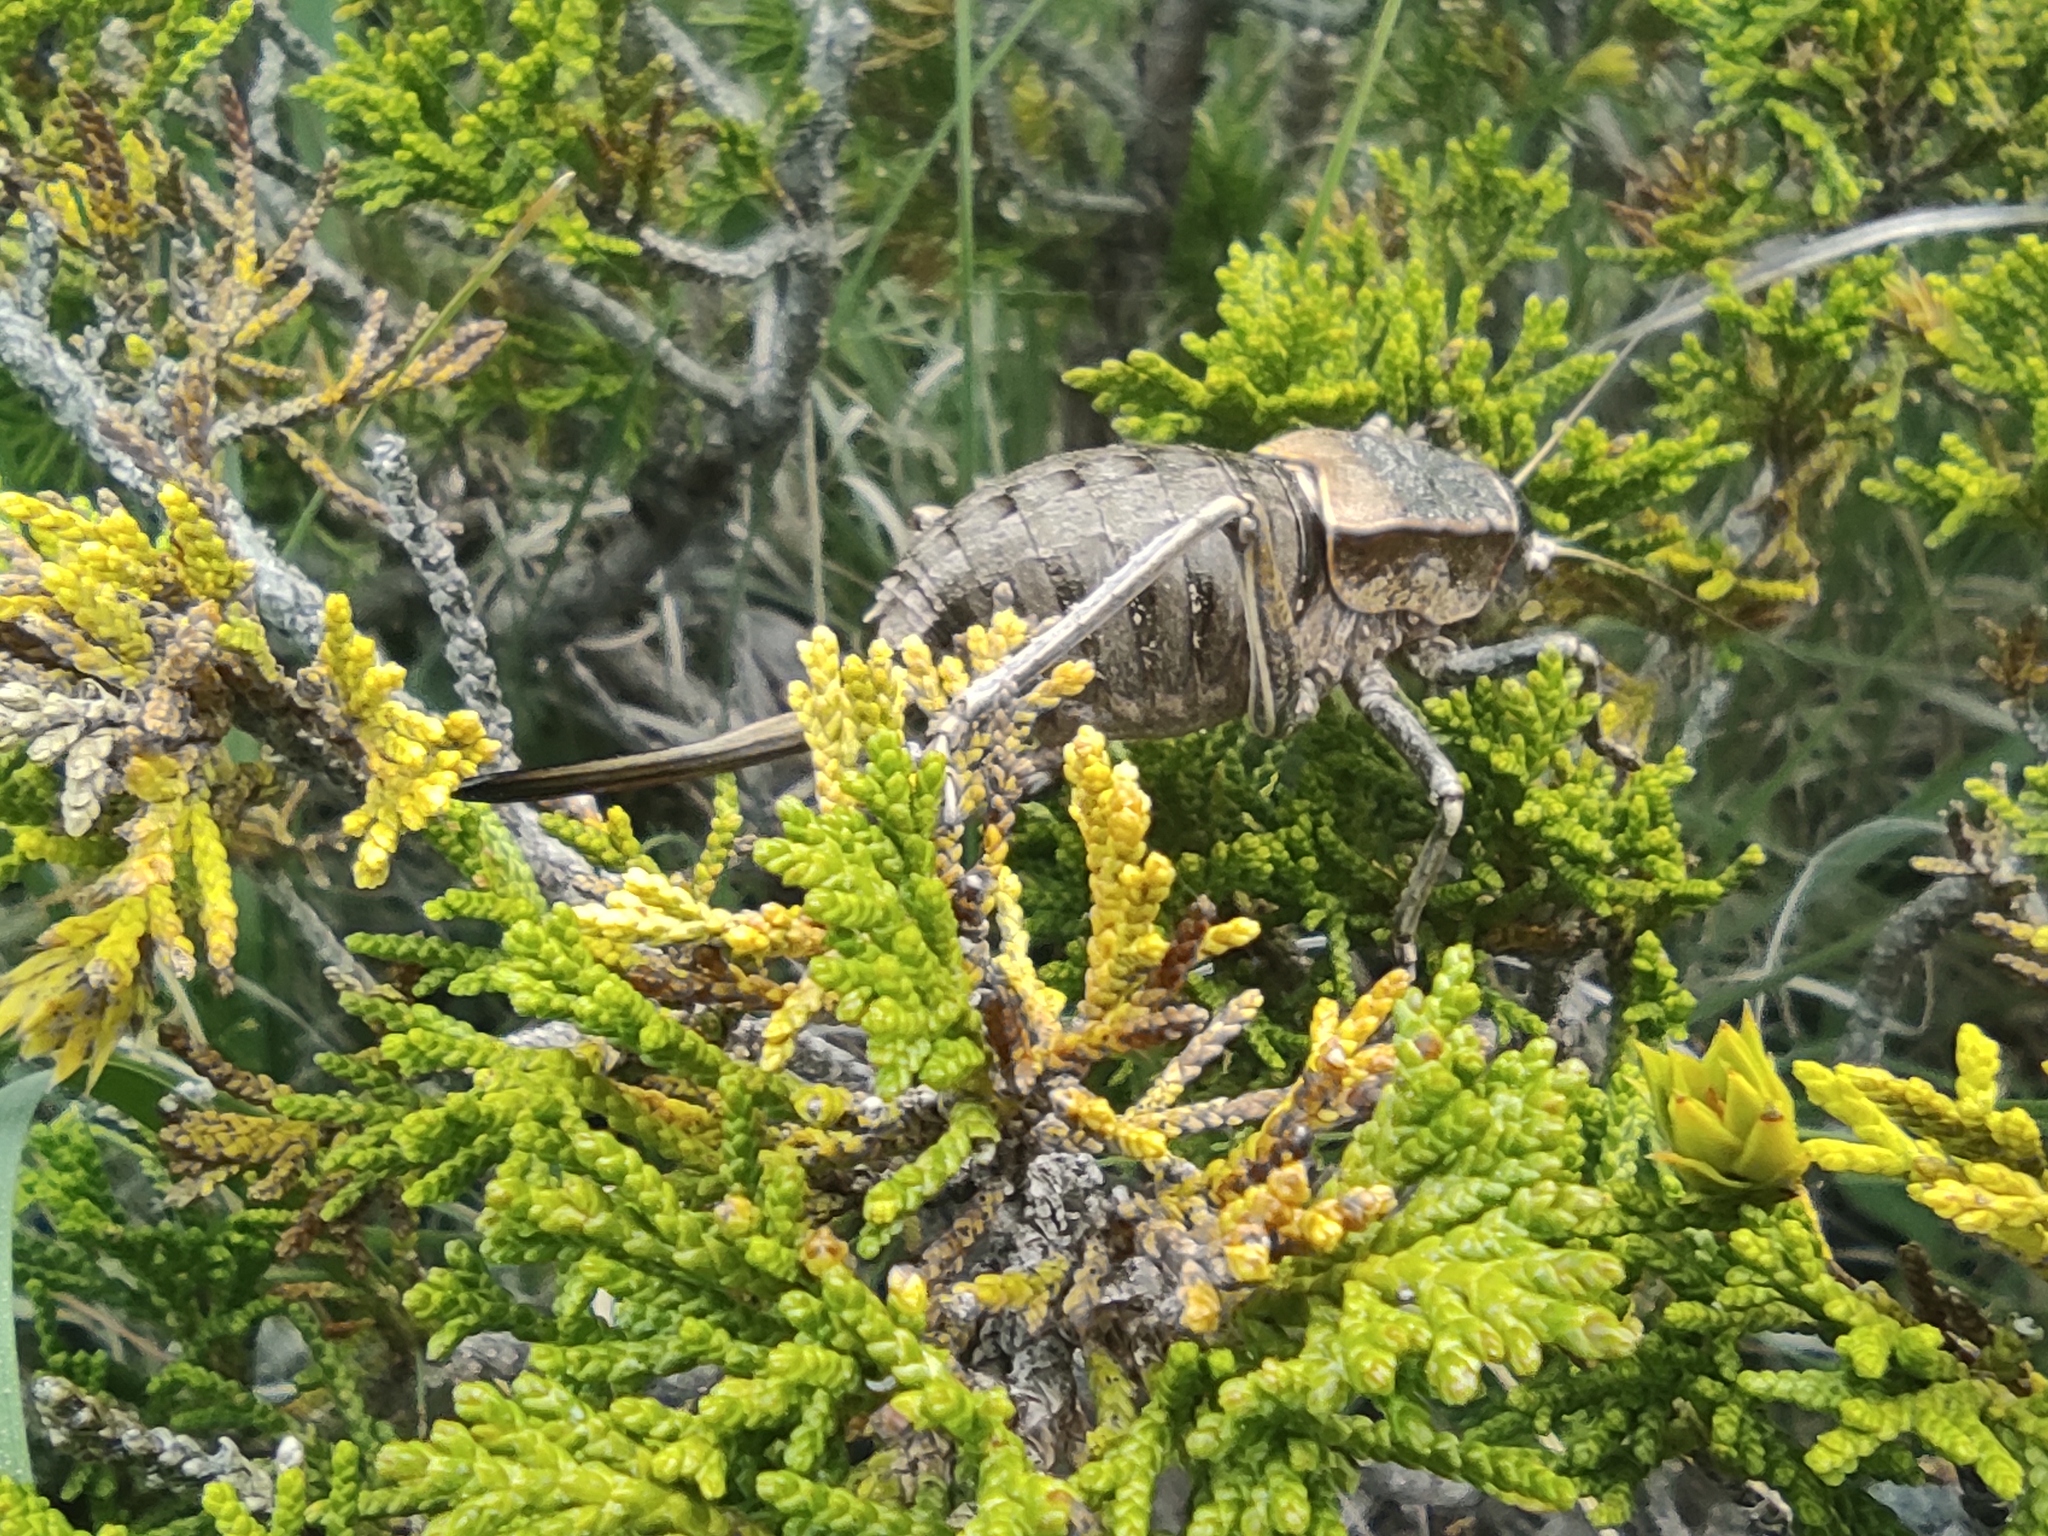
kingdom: Animalia
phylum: Arthropoda
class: Insecta
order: Orthoptera
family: Tettigoniidae
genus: Pycnogaster
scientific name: Pycnogaster jugicola
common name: Fat-bellied saddle bush-cricket
